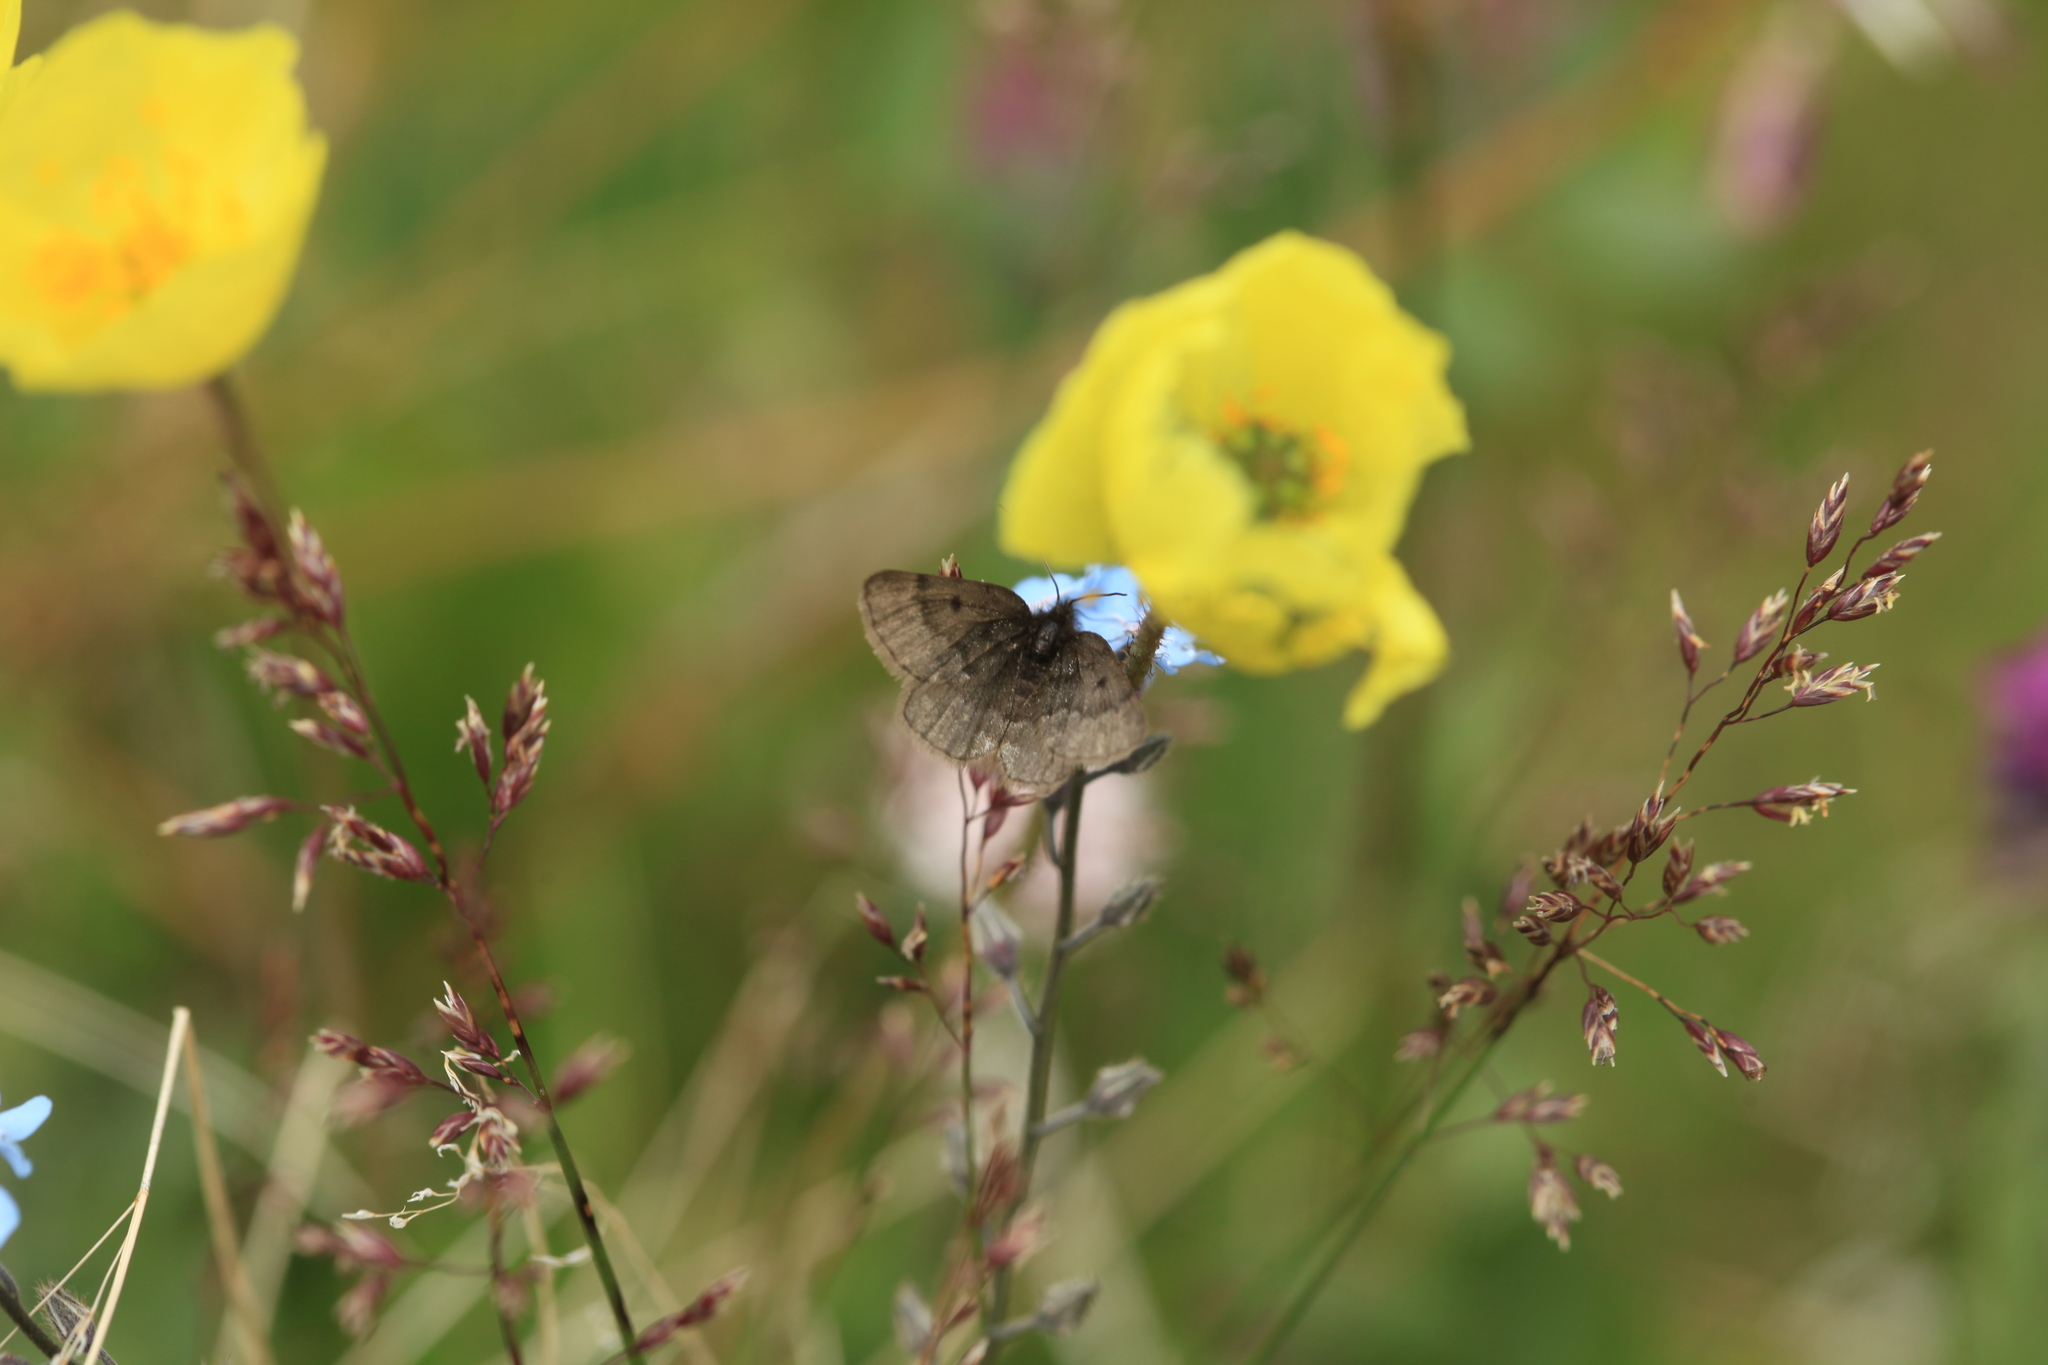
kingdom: Animalia
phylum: Arthropoda
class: Insecta
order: Lepidoptera
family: Geometridae
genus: Glacies
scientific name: Glacies coracina
